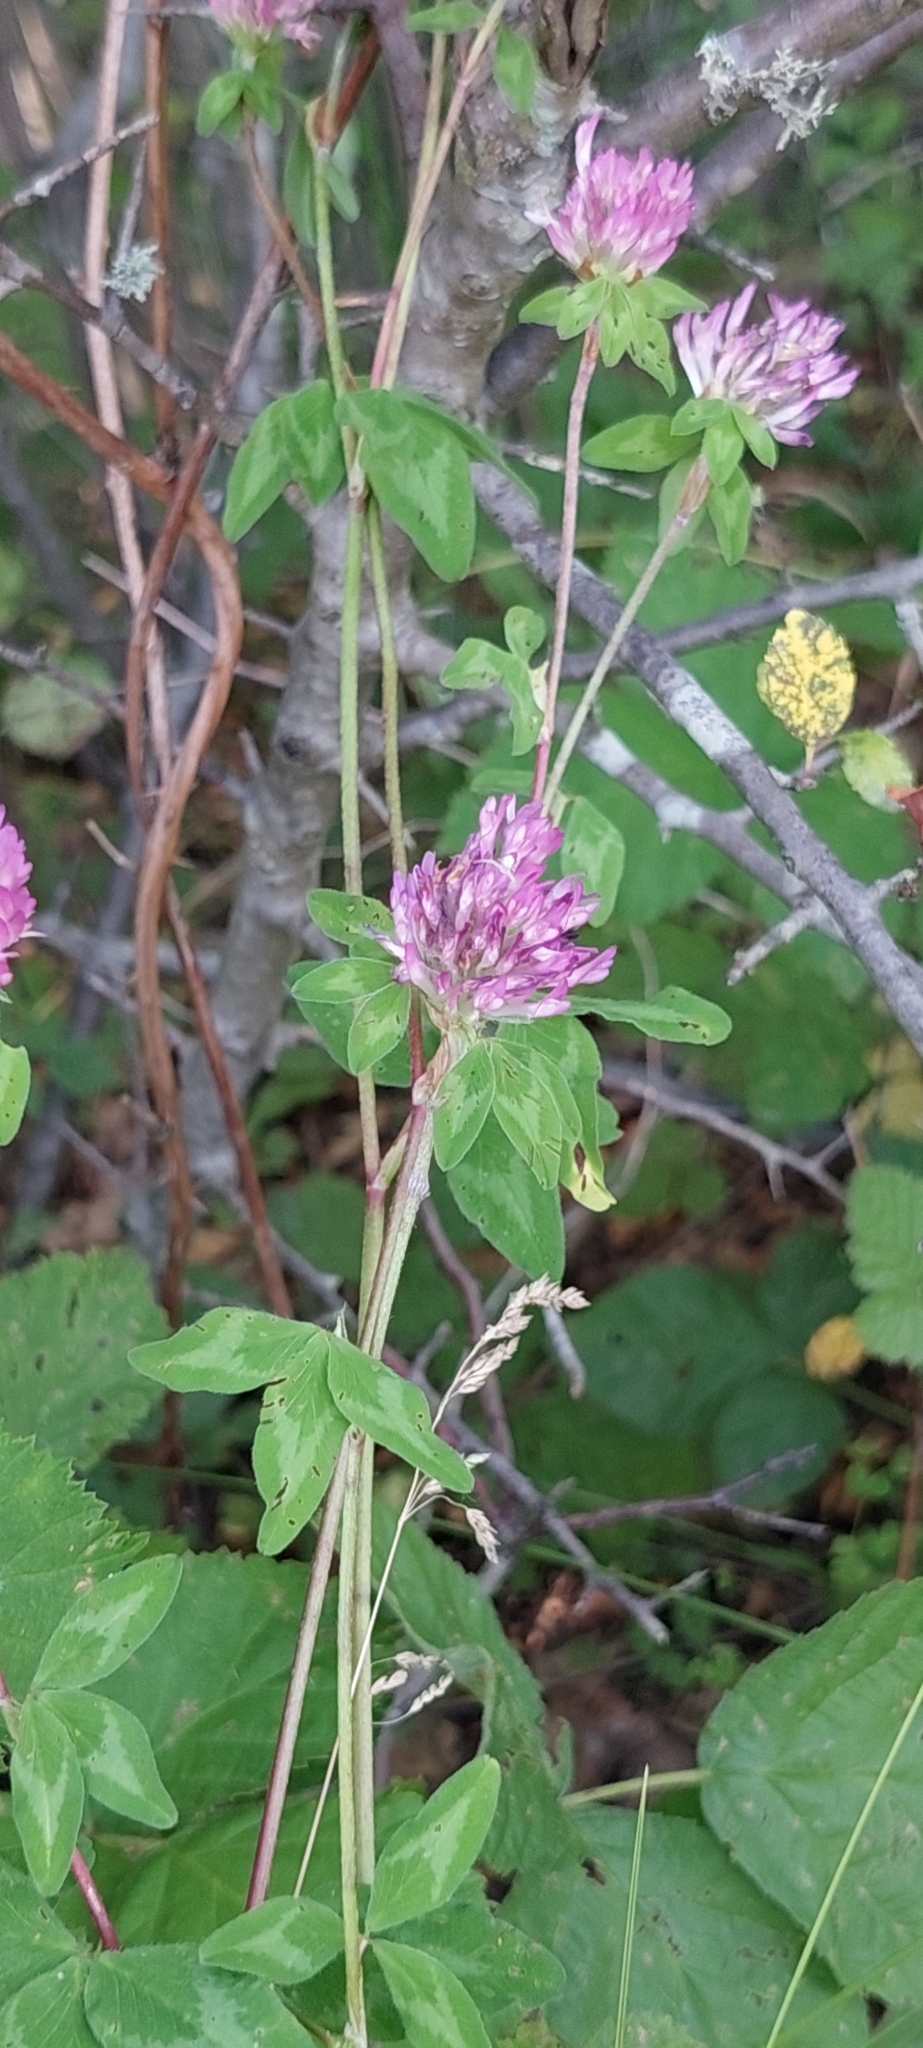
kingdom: Plantae
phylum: Tracheophyta
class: Magnoliopsida
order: Fabales
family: Fabaceae
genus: Trifolium
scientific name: Trifolium pratense
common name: Red clover
